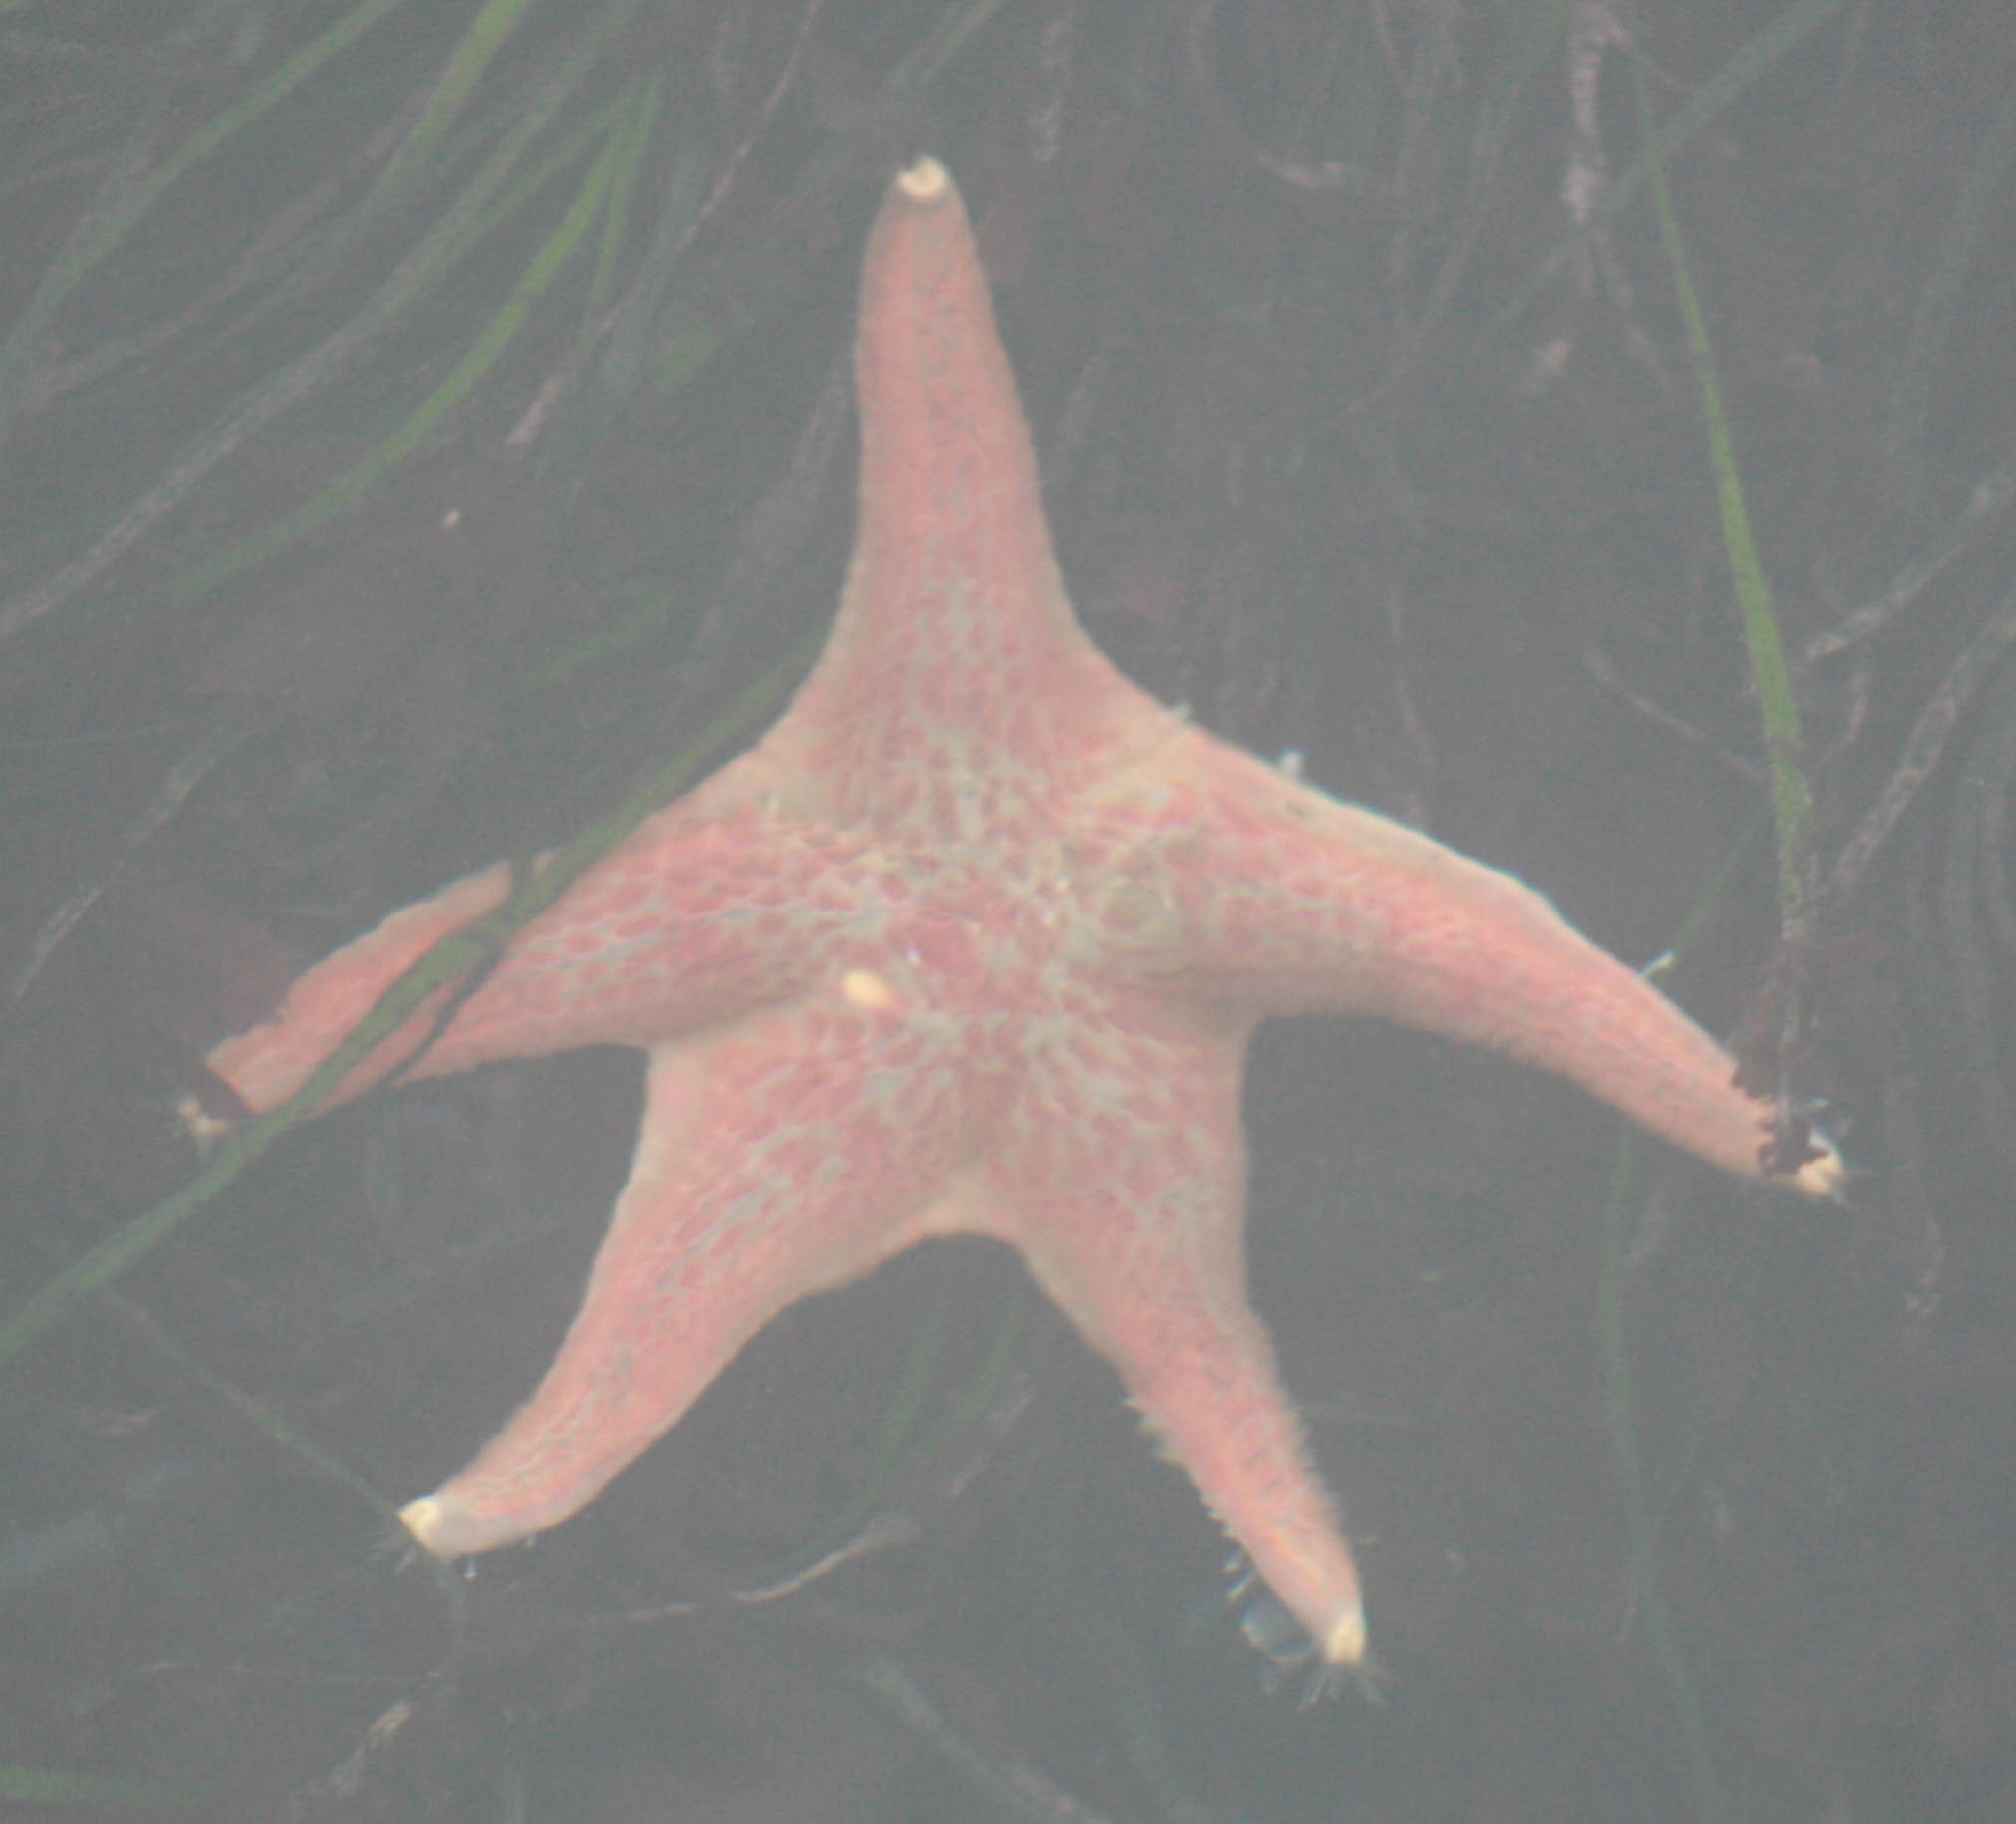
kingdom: Animalia
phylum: Echinodermata
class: Asteroidea
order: Valvatida
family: Asteropseidae
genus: Dermasterias
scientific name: Dermasterias imbricata
